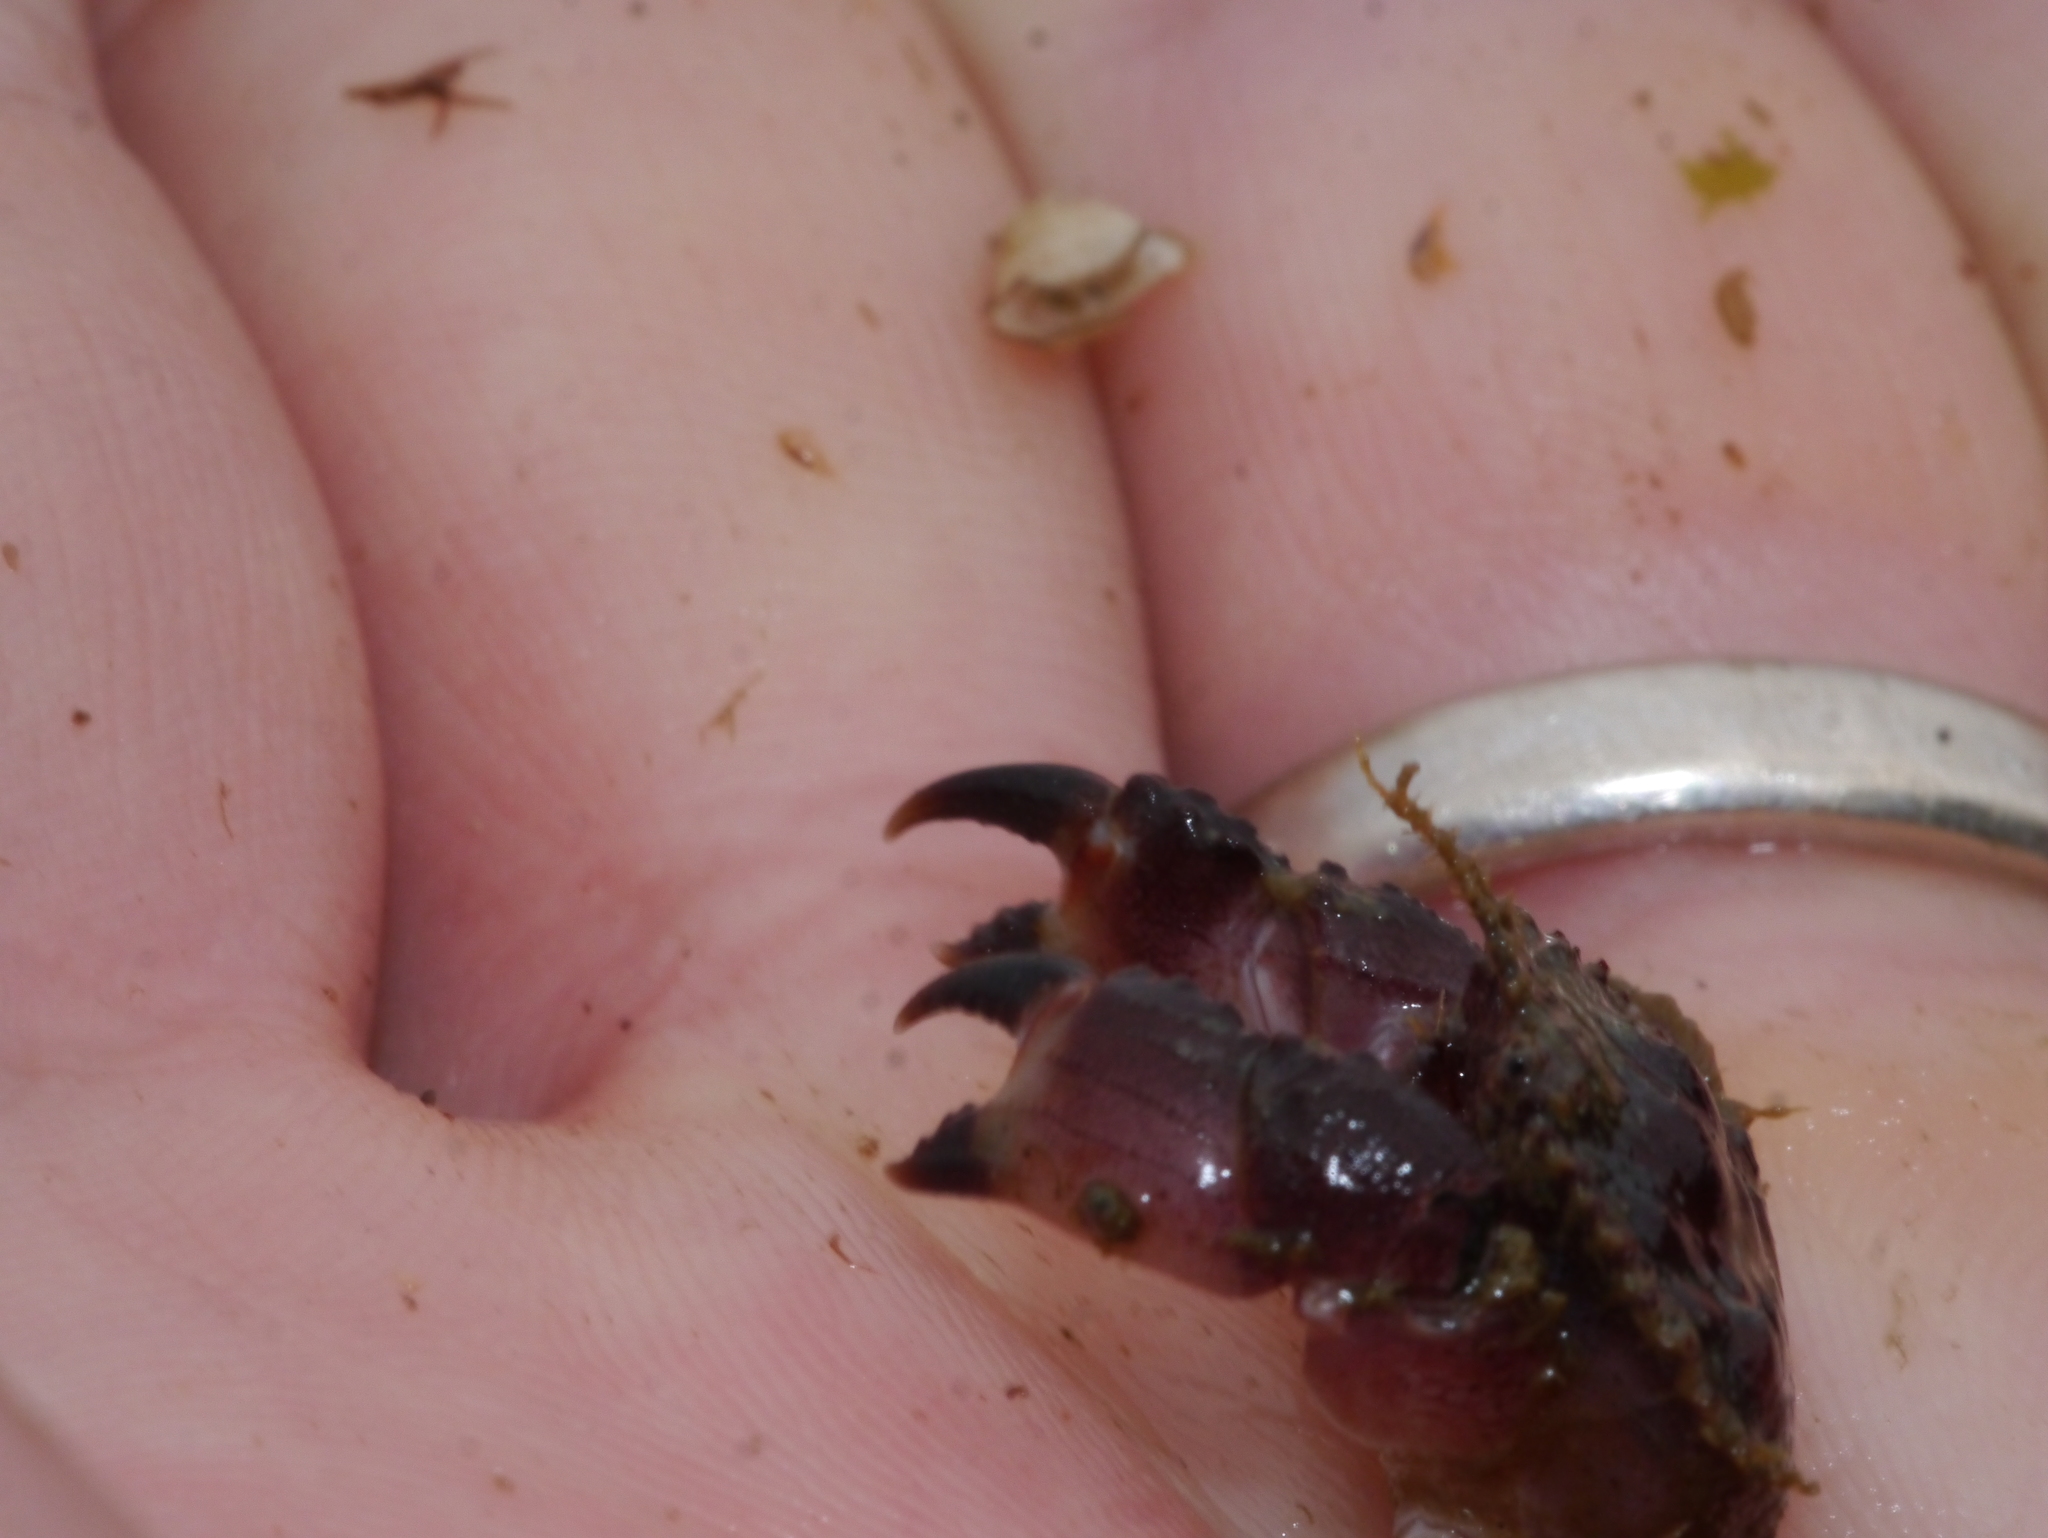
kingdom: Animalia
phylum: Arthropoda
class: Malacostraca
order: Decapoda
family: Cancridae
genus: Glebocarcinus
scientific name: Glebocarcinus oregonensis
